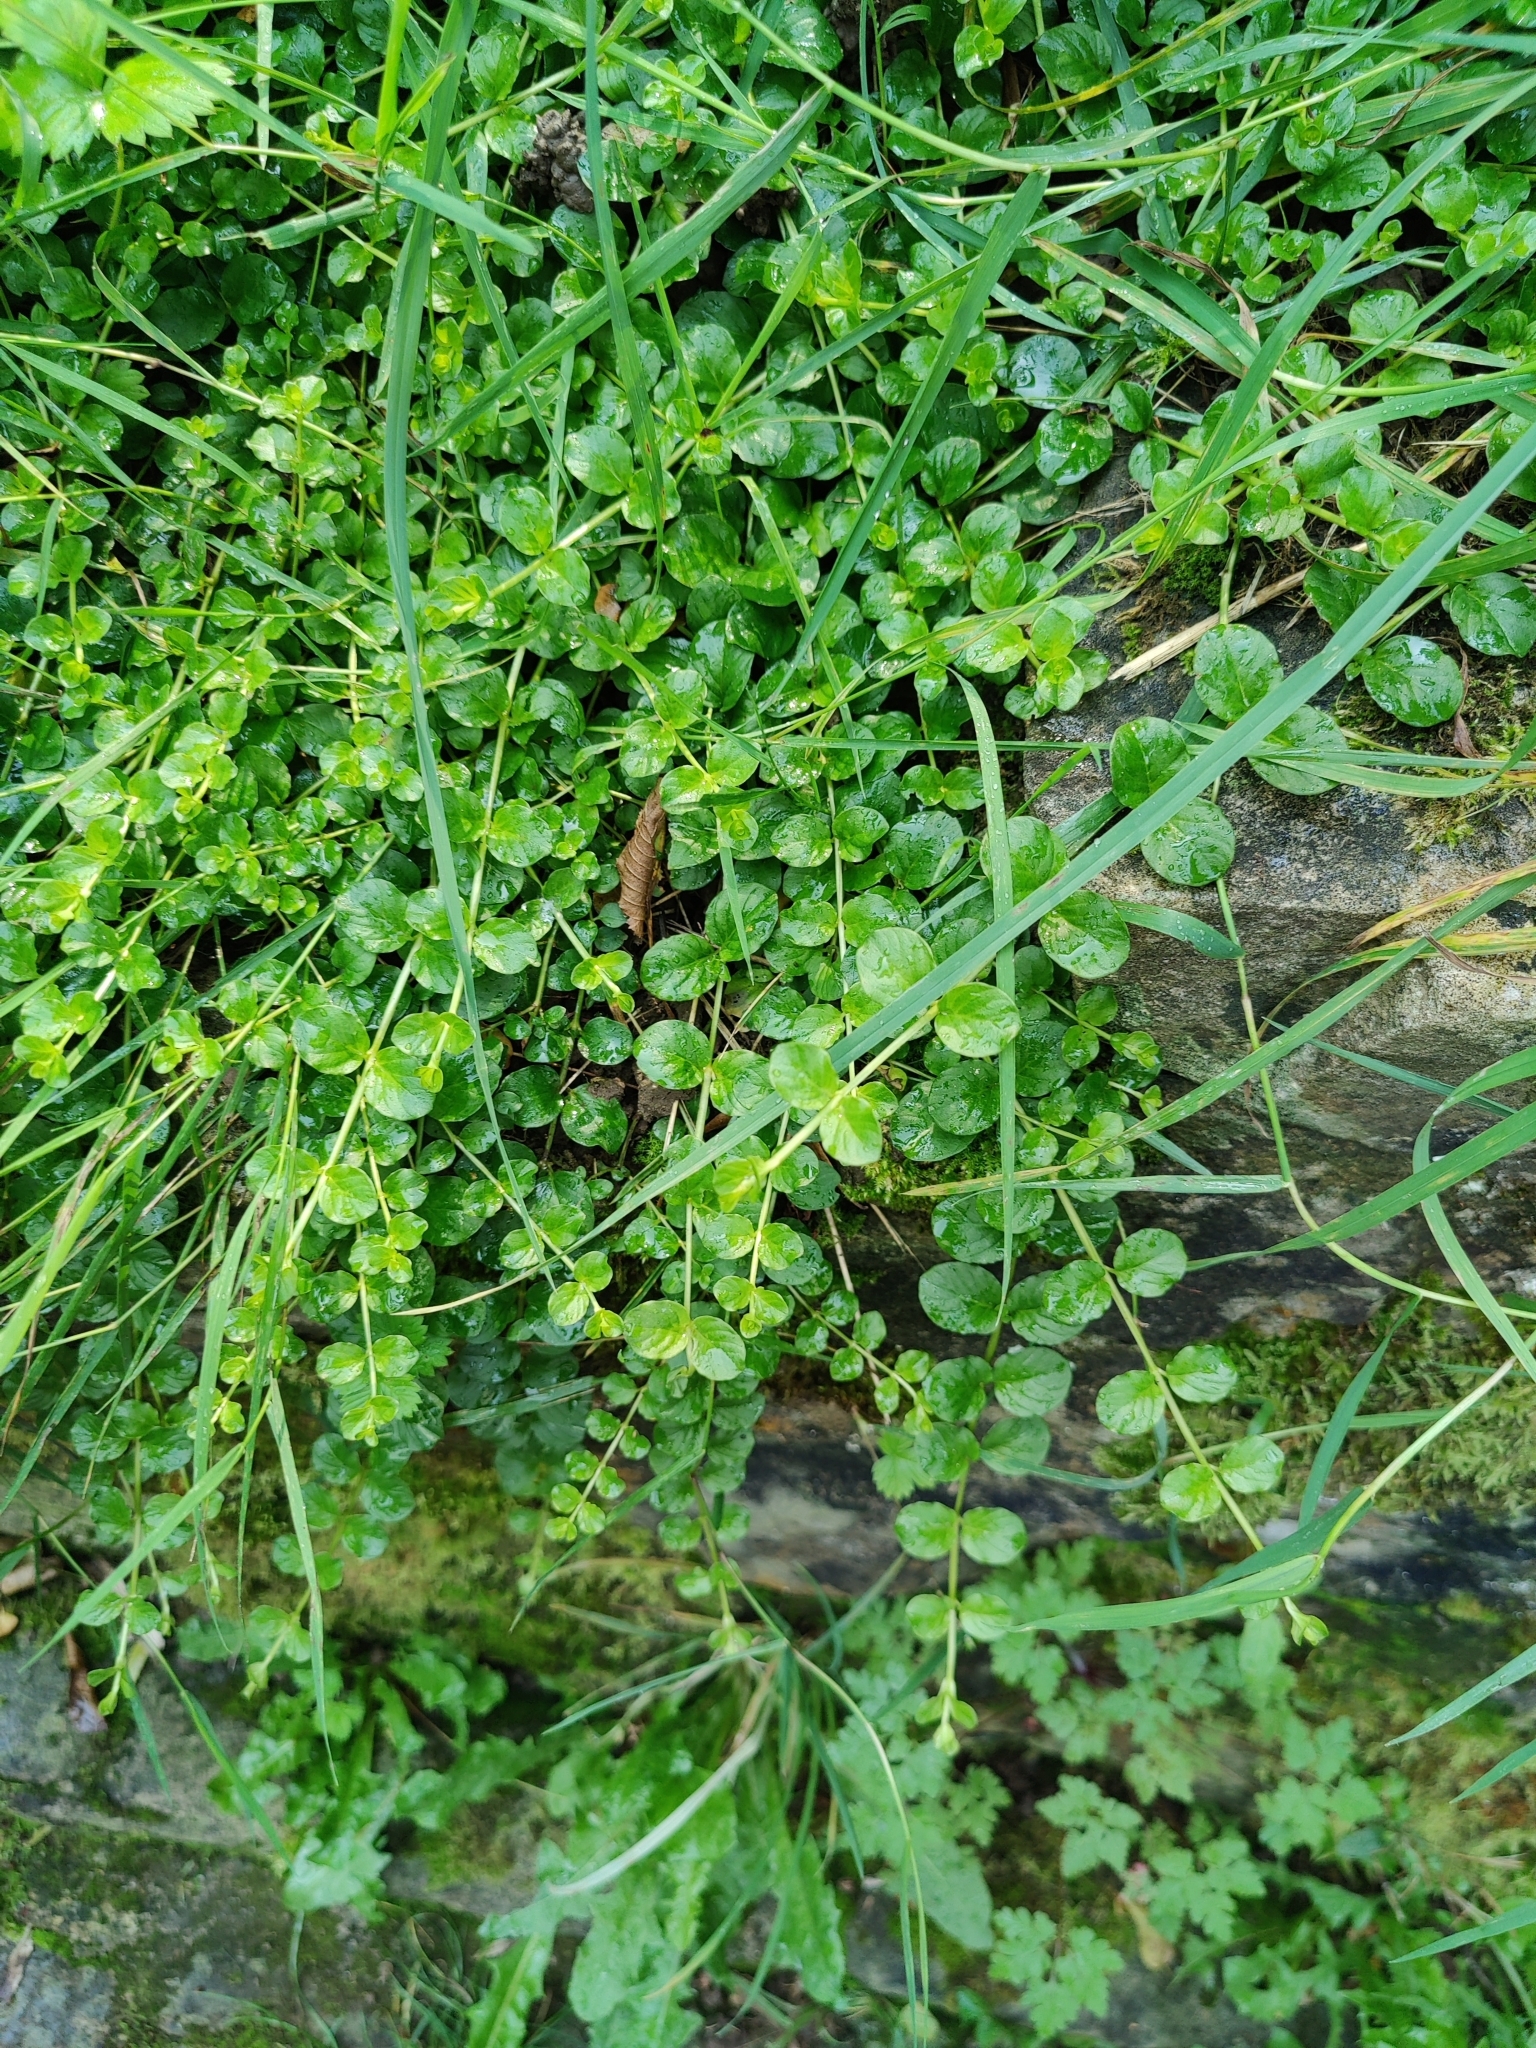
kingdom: Plantae
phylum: Tracheophyta
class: Magnoliopsida
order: Ericales
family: Primulaceae
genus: Lysimachia
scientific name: Lysimachia nummularia
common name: Moneywort
